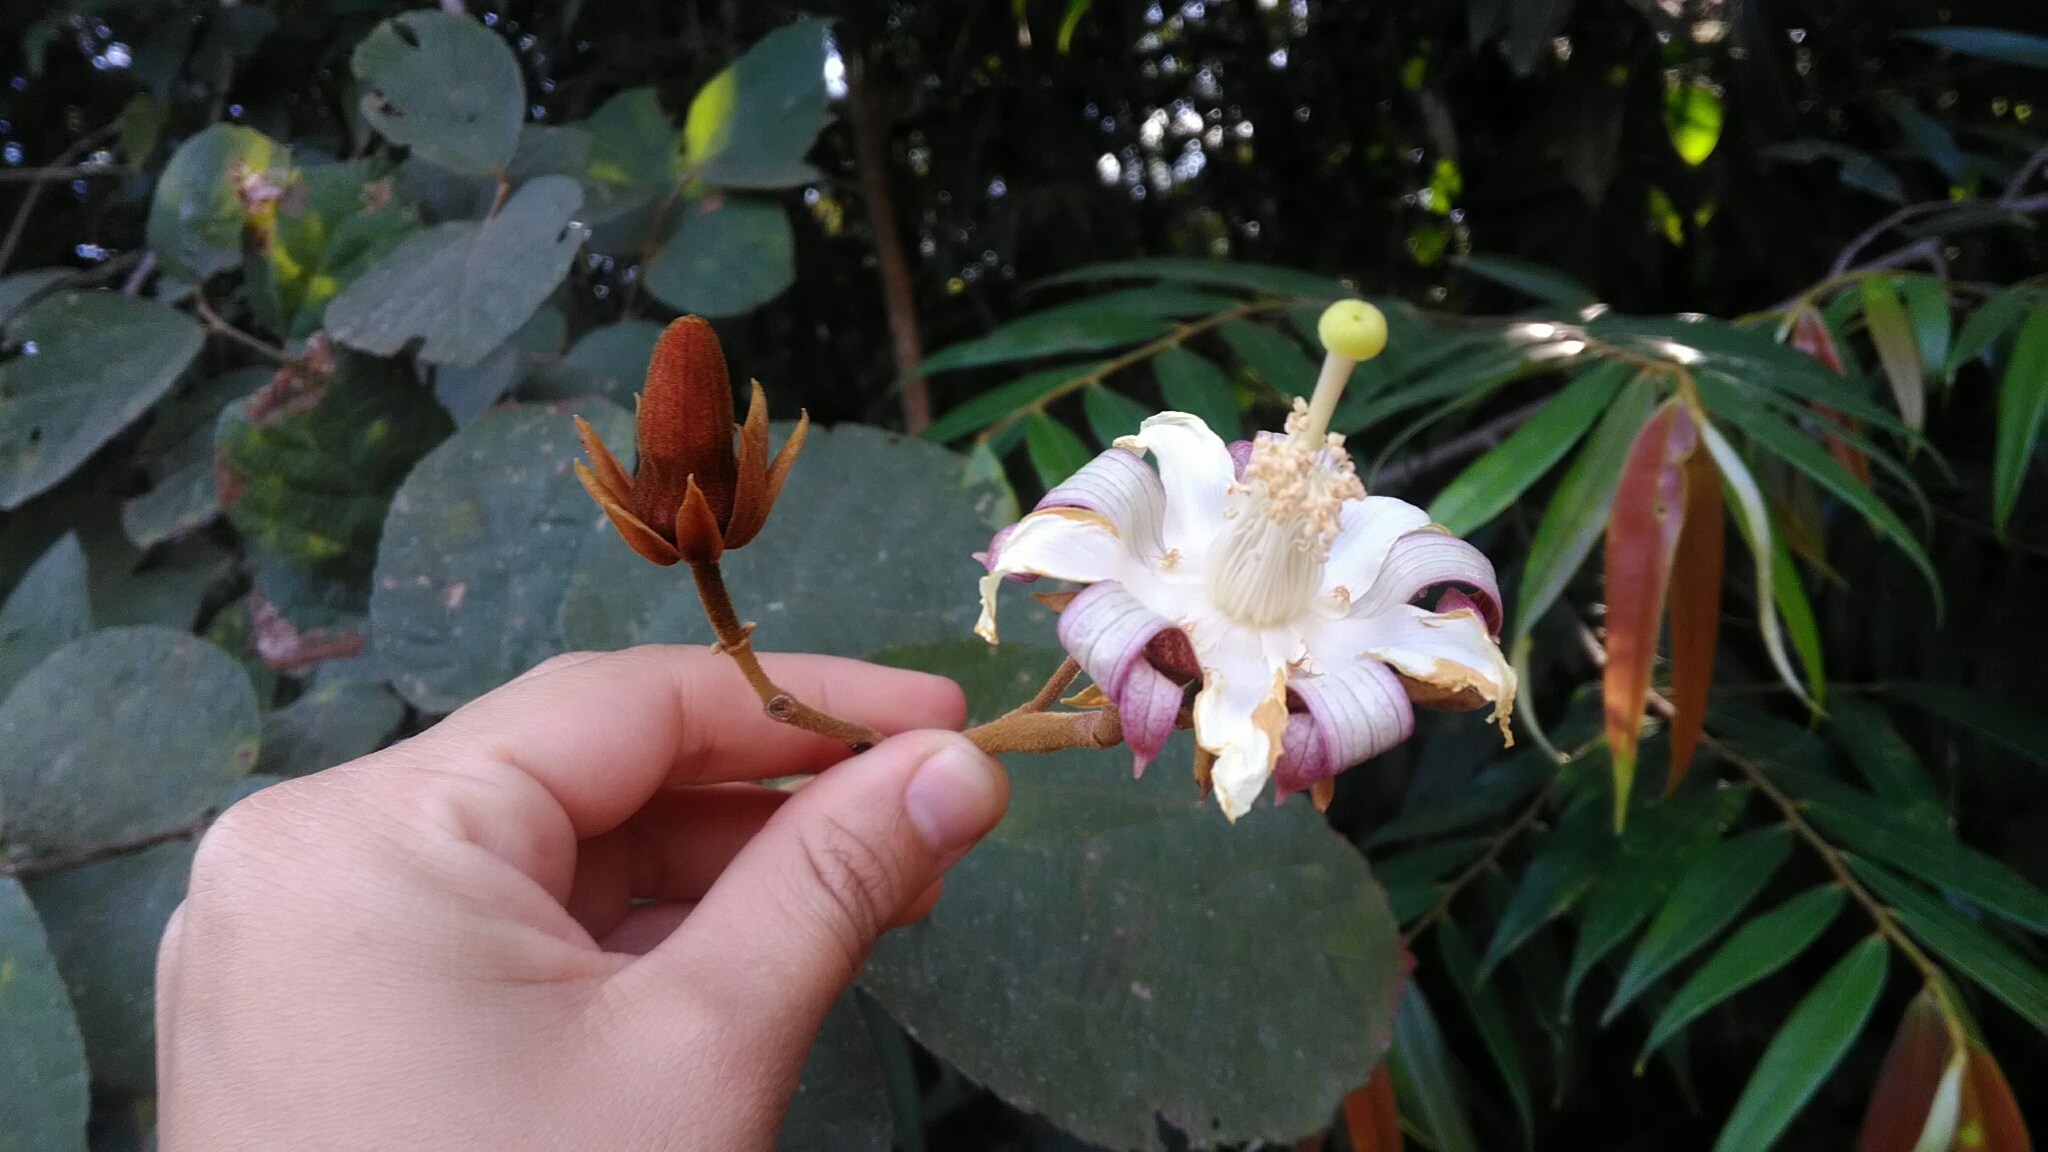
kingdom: Plantae
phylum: Tracheophyta
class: Magnoliopsida
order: Malvales
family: Malvaceae
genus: Luehea
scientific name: Luehea grandiflora
